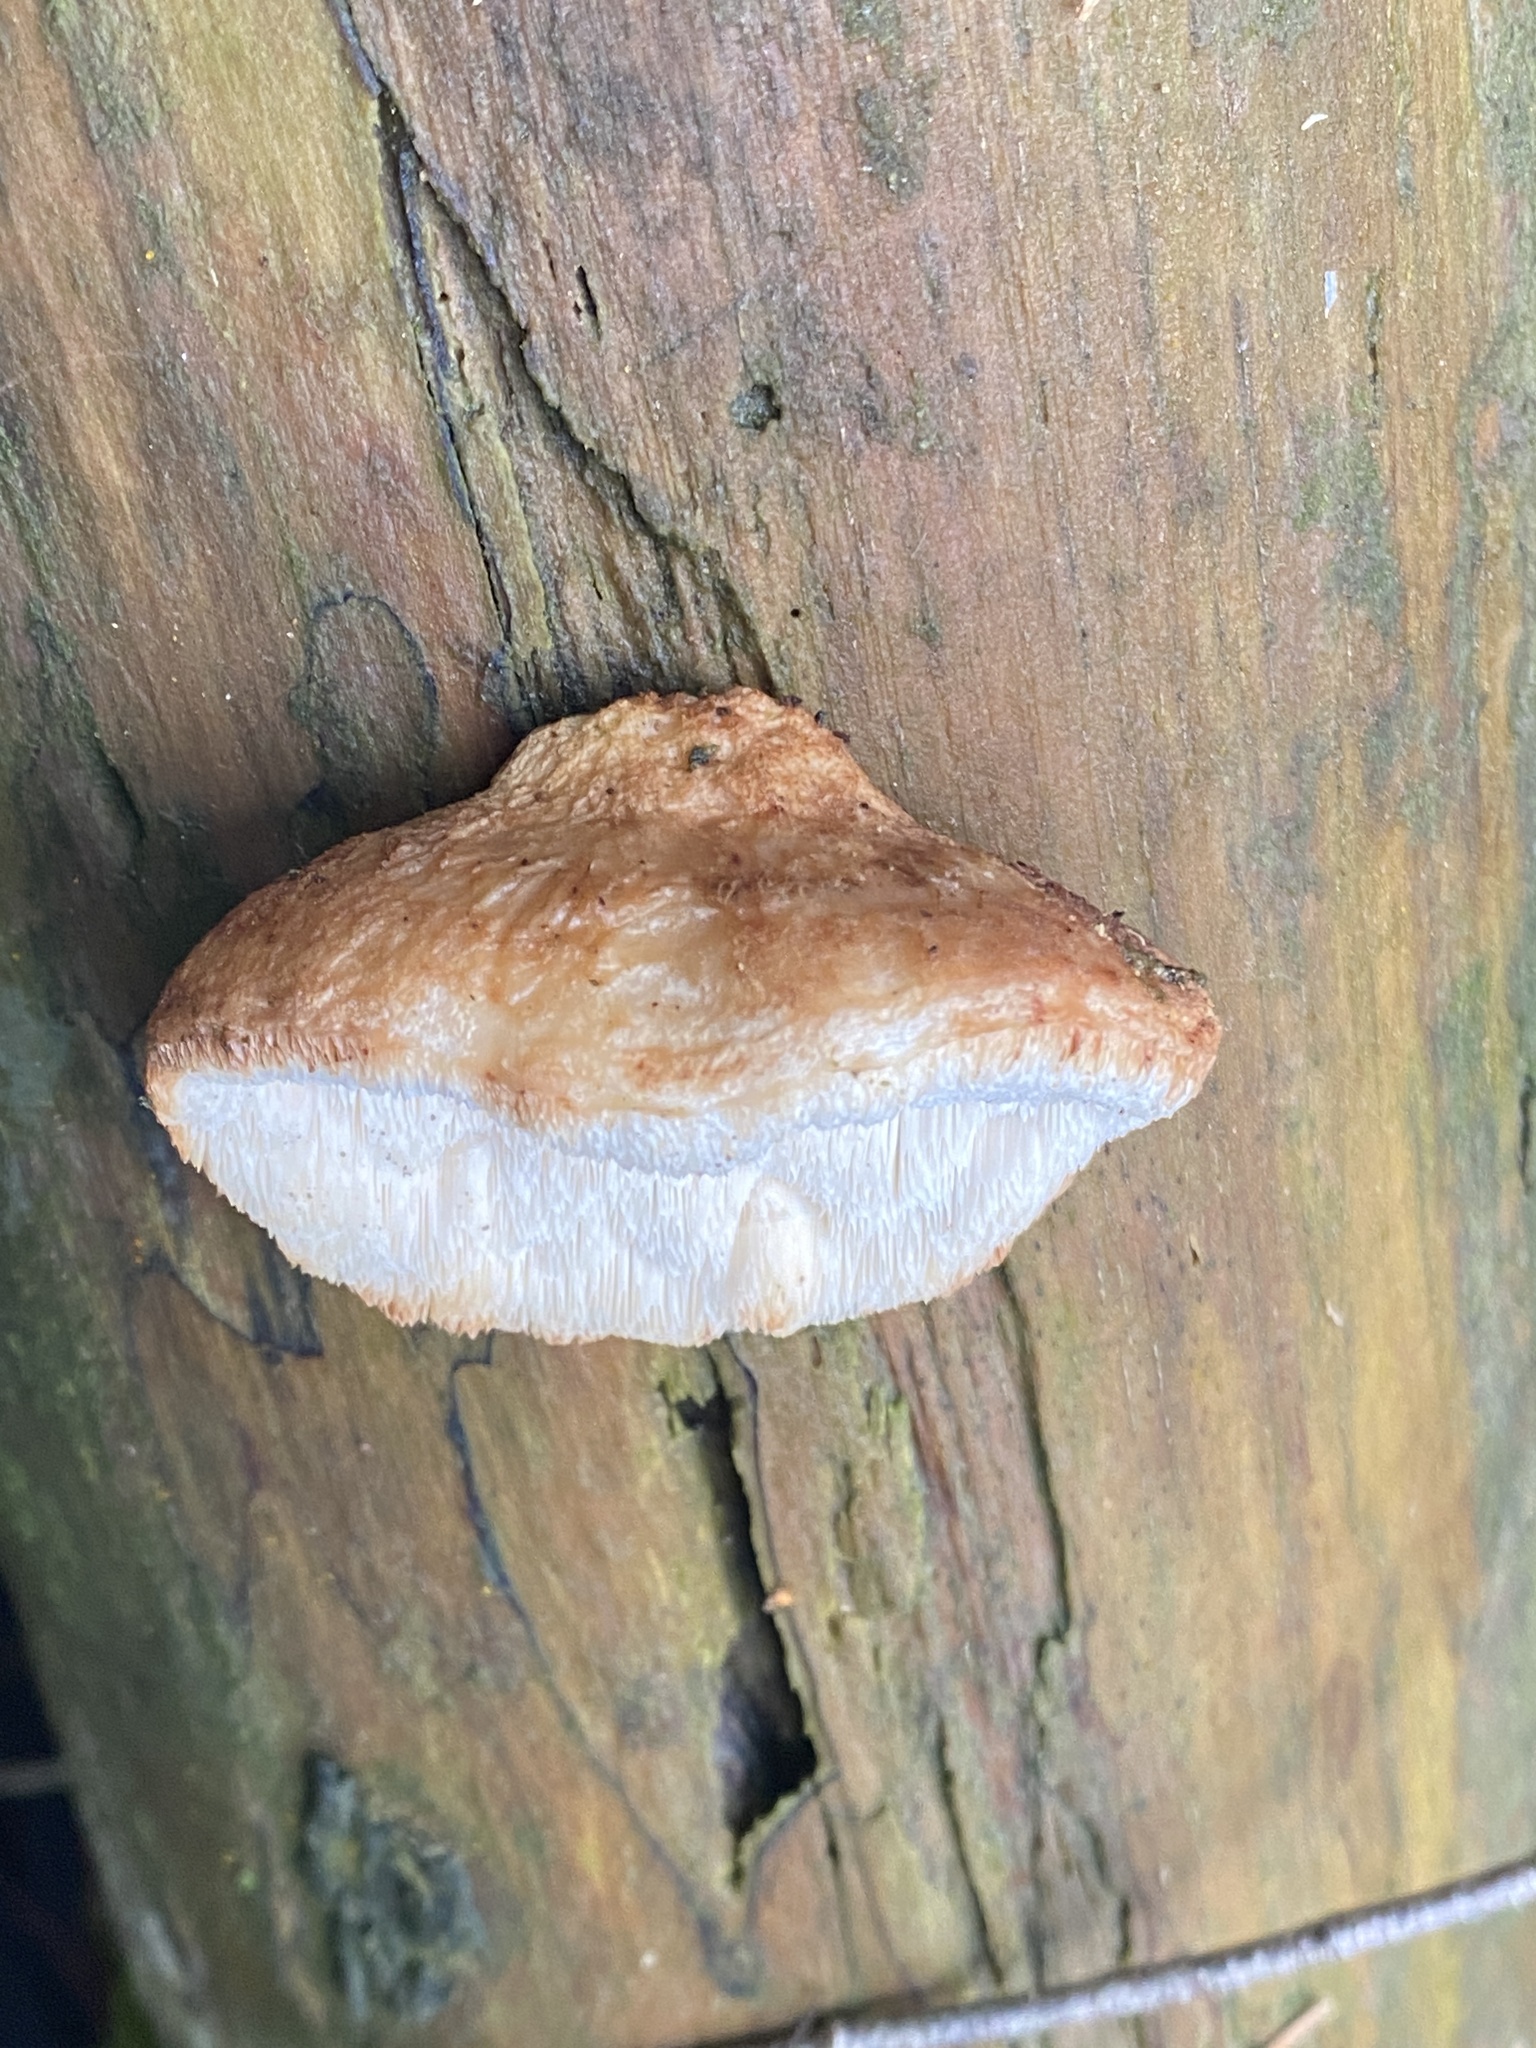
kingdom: Fungi
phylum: Basidiomycota
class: Agaricomycetes
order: Polyporales
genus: Fuscopostia
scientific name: Fuscopostia fragilis
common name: Brown-staining cheese polypore
